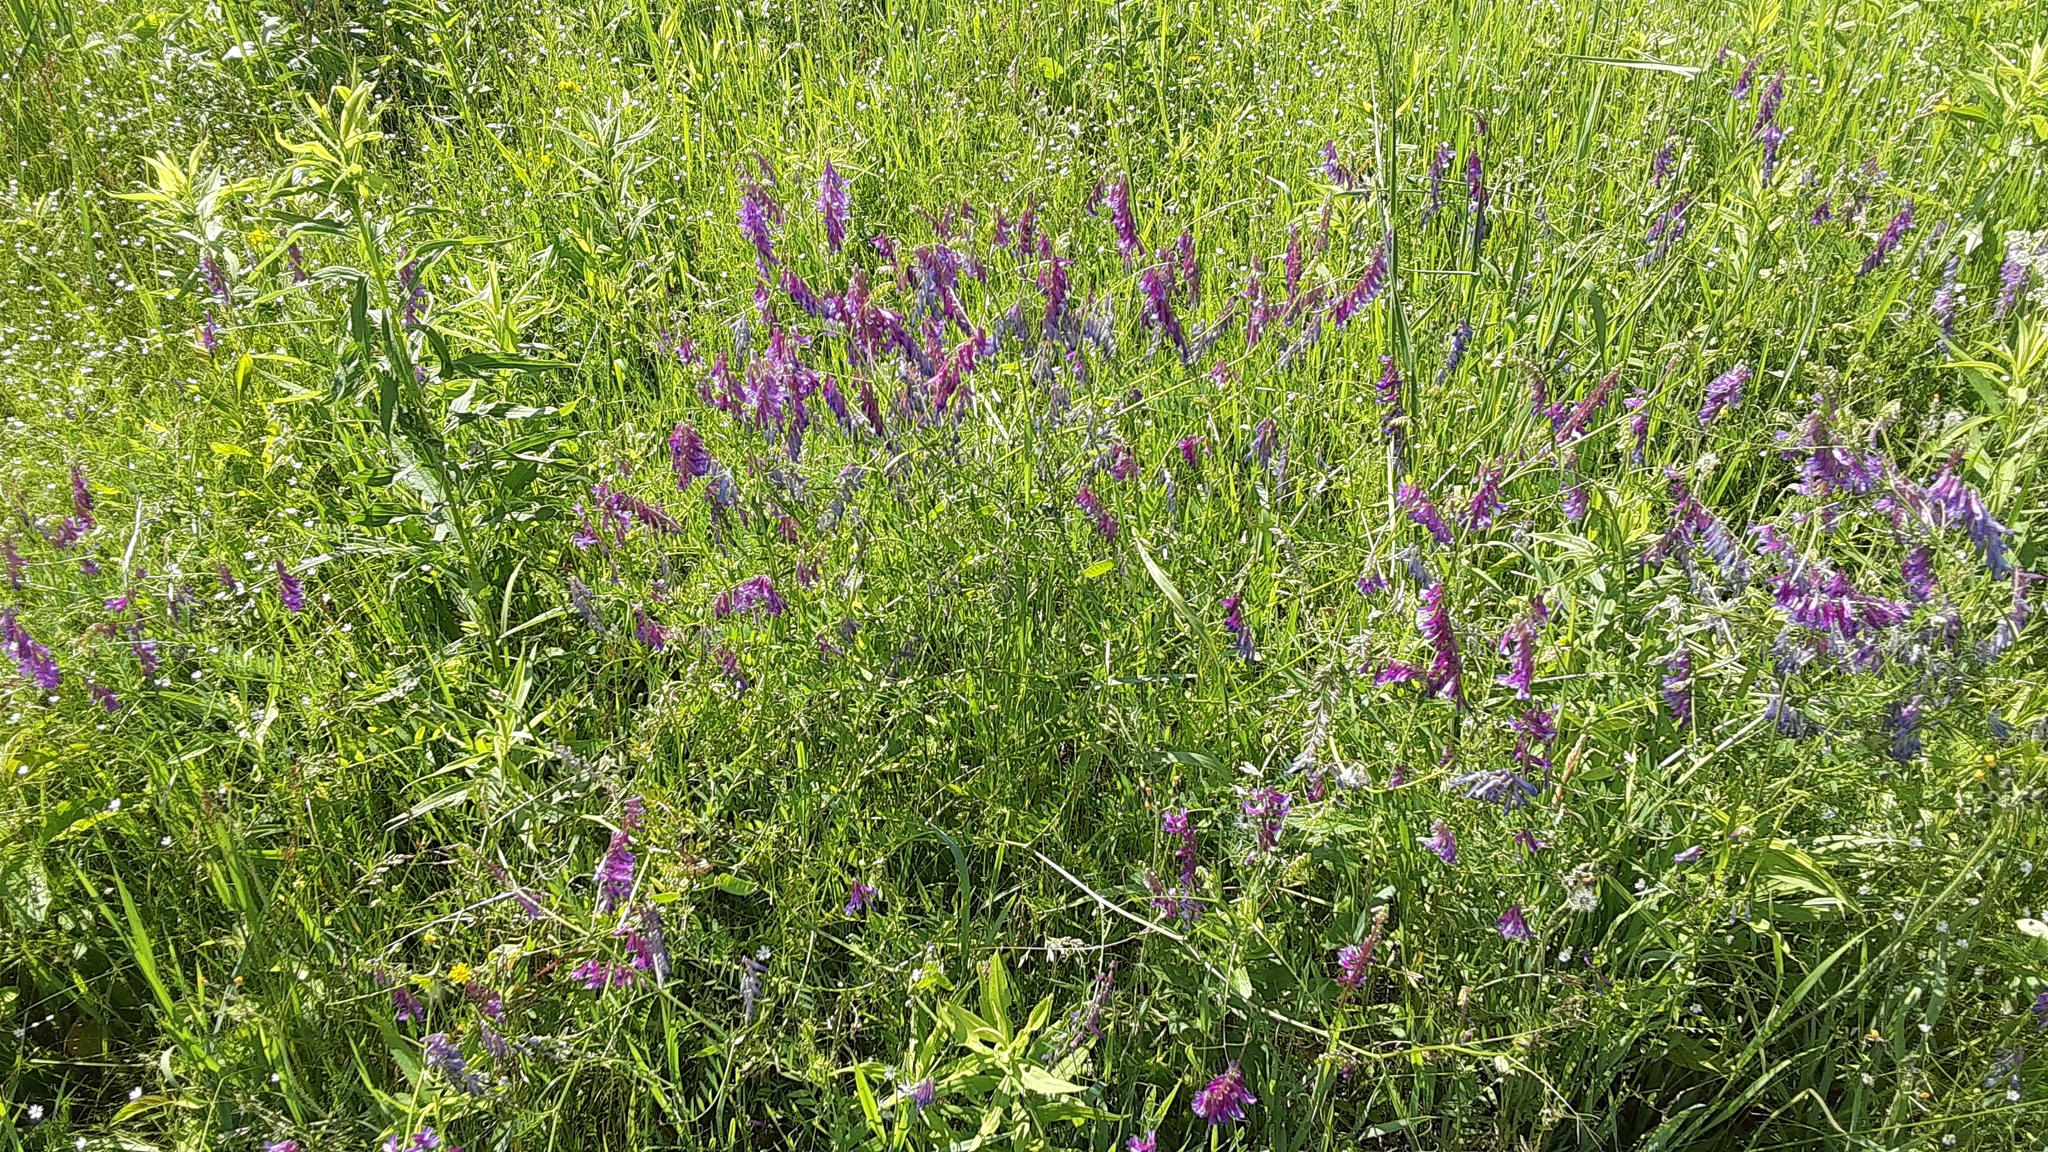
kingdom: Plantae
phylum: Tracheophyta
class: Magnoliopsida
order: Fabales
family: Fabaceae
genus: Vicia
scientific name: Vicia villosa
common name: Fodder vetch
